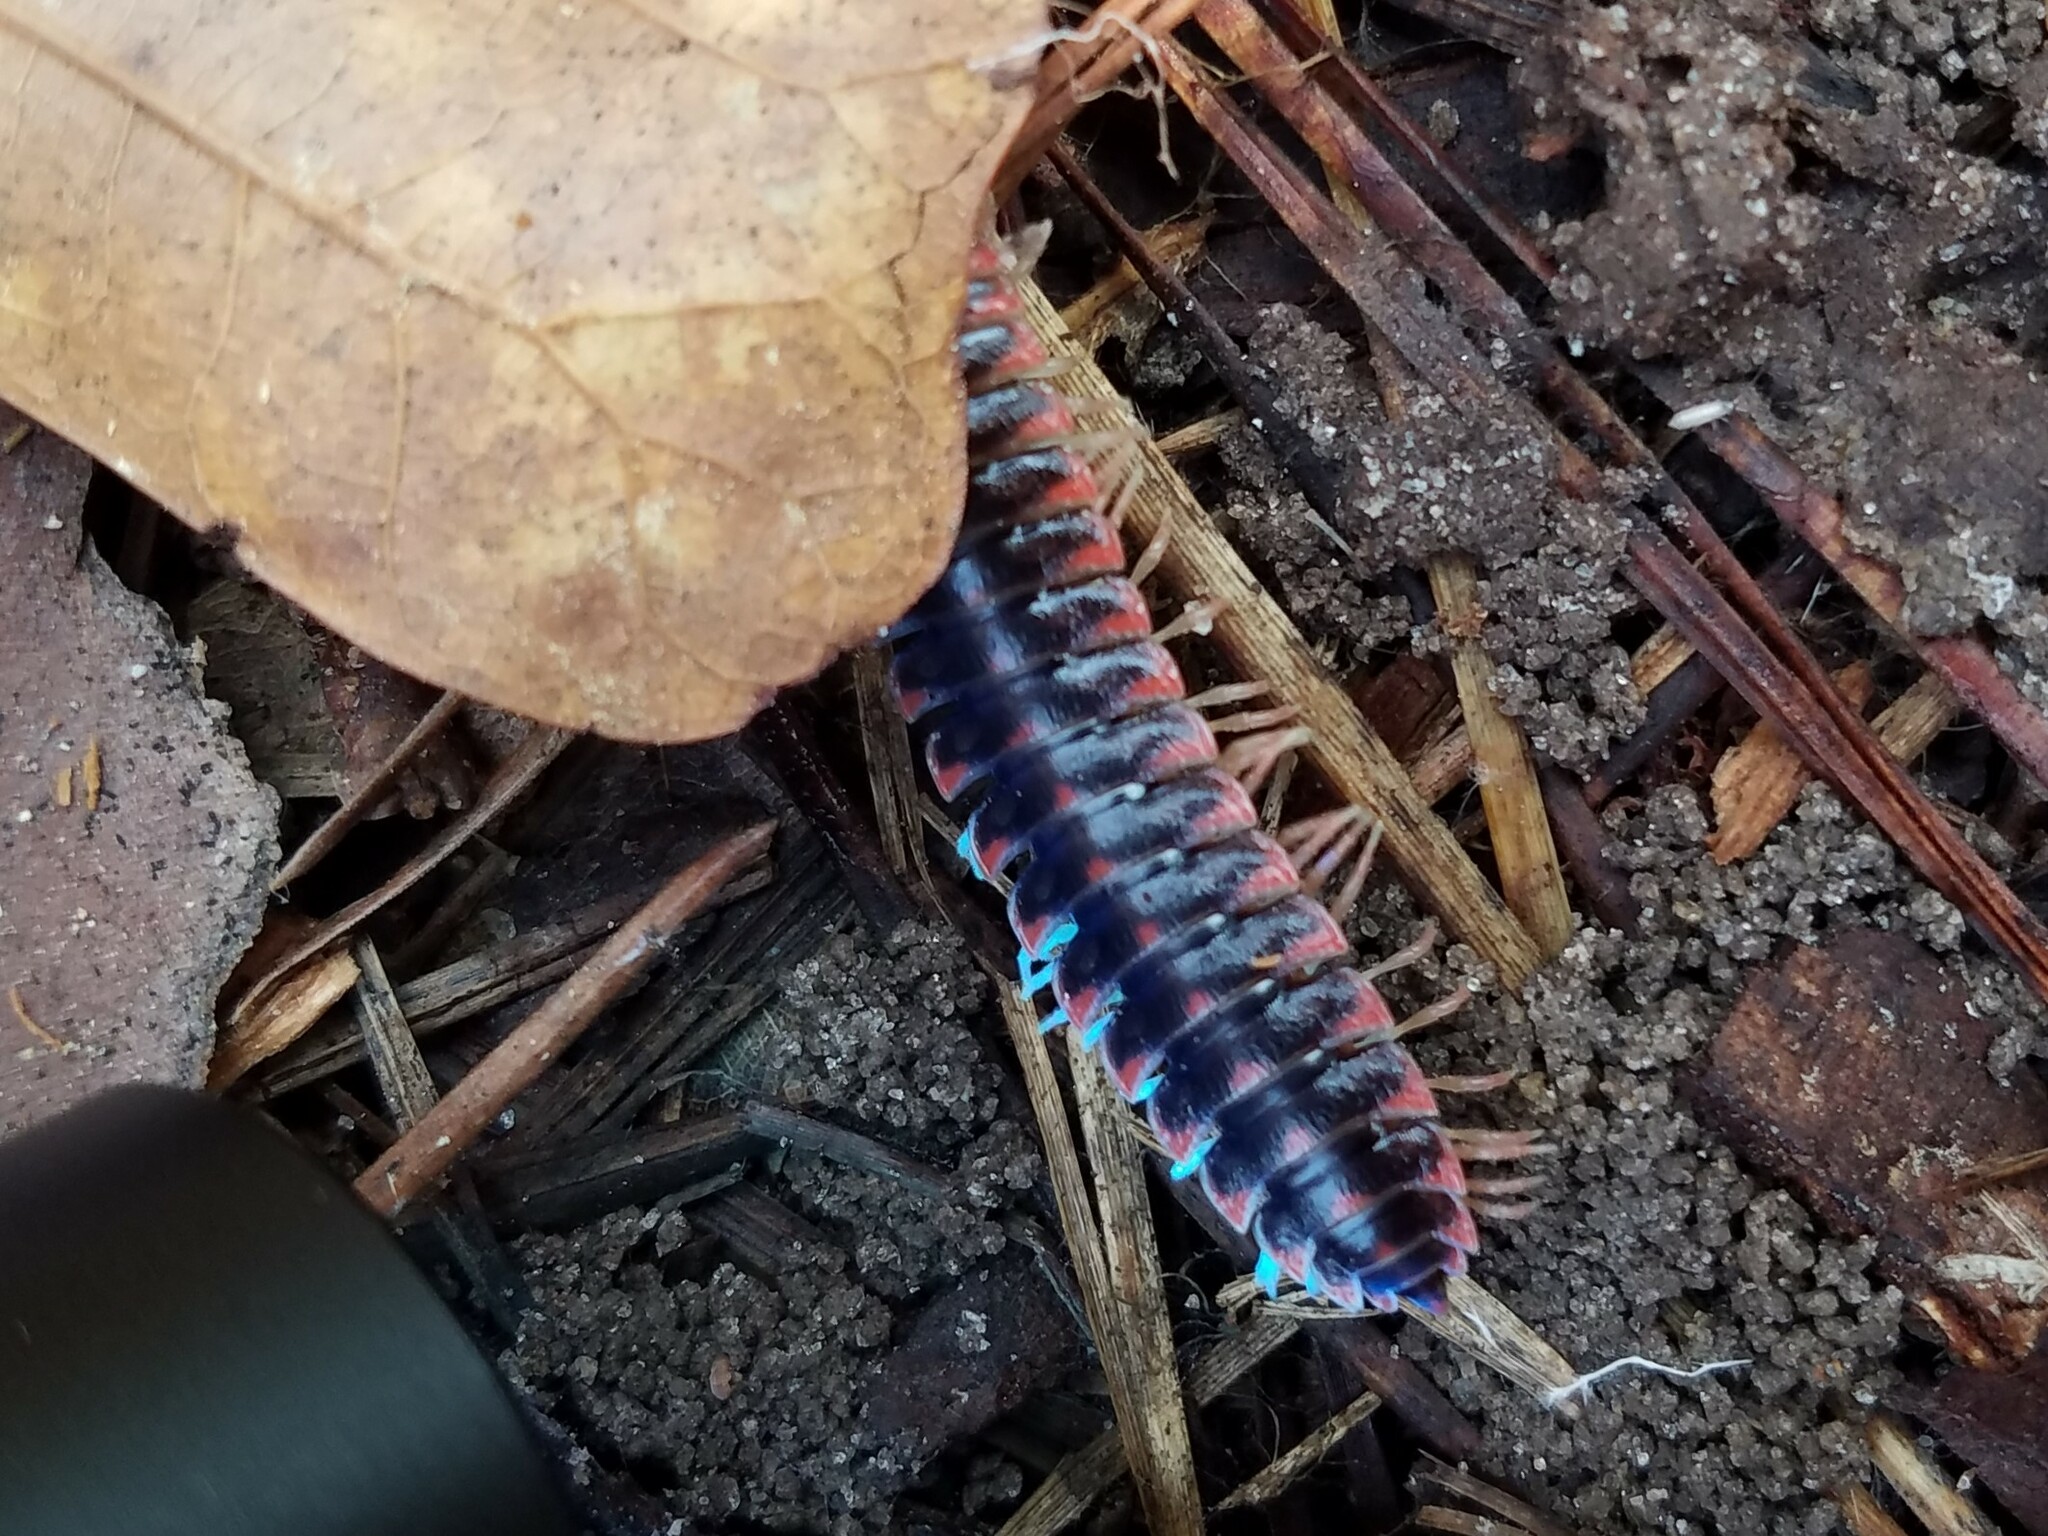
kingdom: Animalia
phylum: Arthropoda
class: Diplopoda
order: Polydesmida
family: Xystodesmidae
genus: Cherokia
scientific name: Cherokia georgiana
